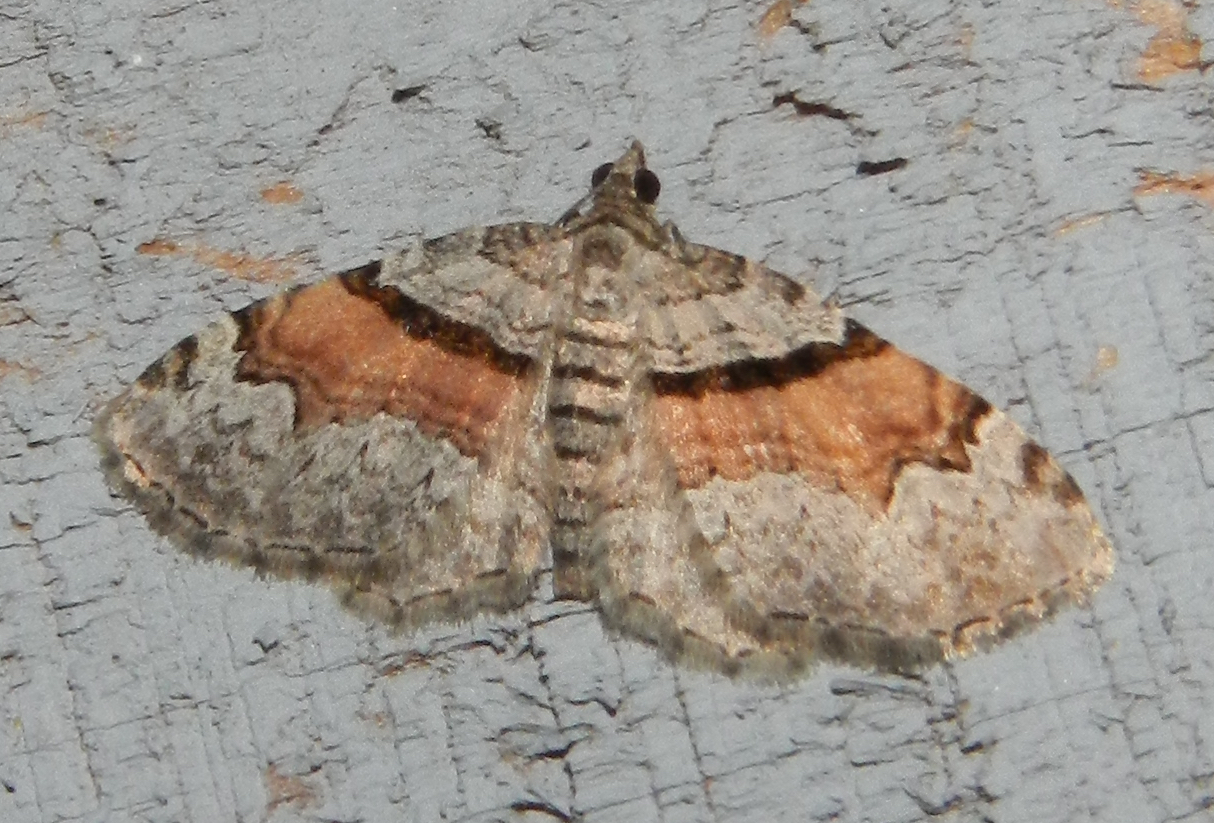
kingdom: Animalia
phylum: Arthropoda
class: Insecta
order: Lepidoptera
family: Geometridae
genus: Xanthorhoe
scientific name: Xanthorhoe packardata
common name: Packard's carpet
